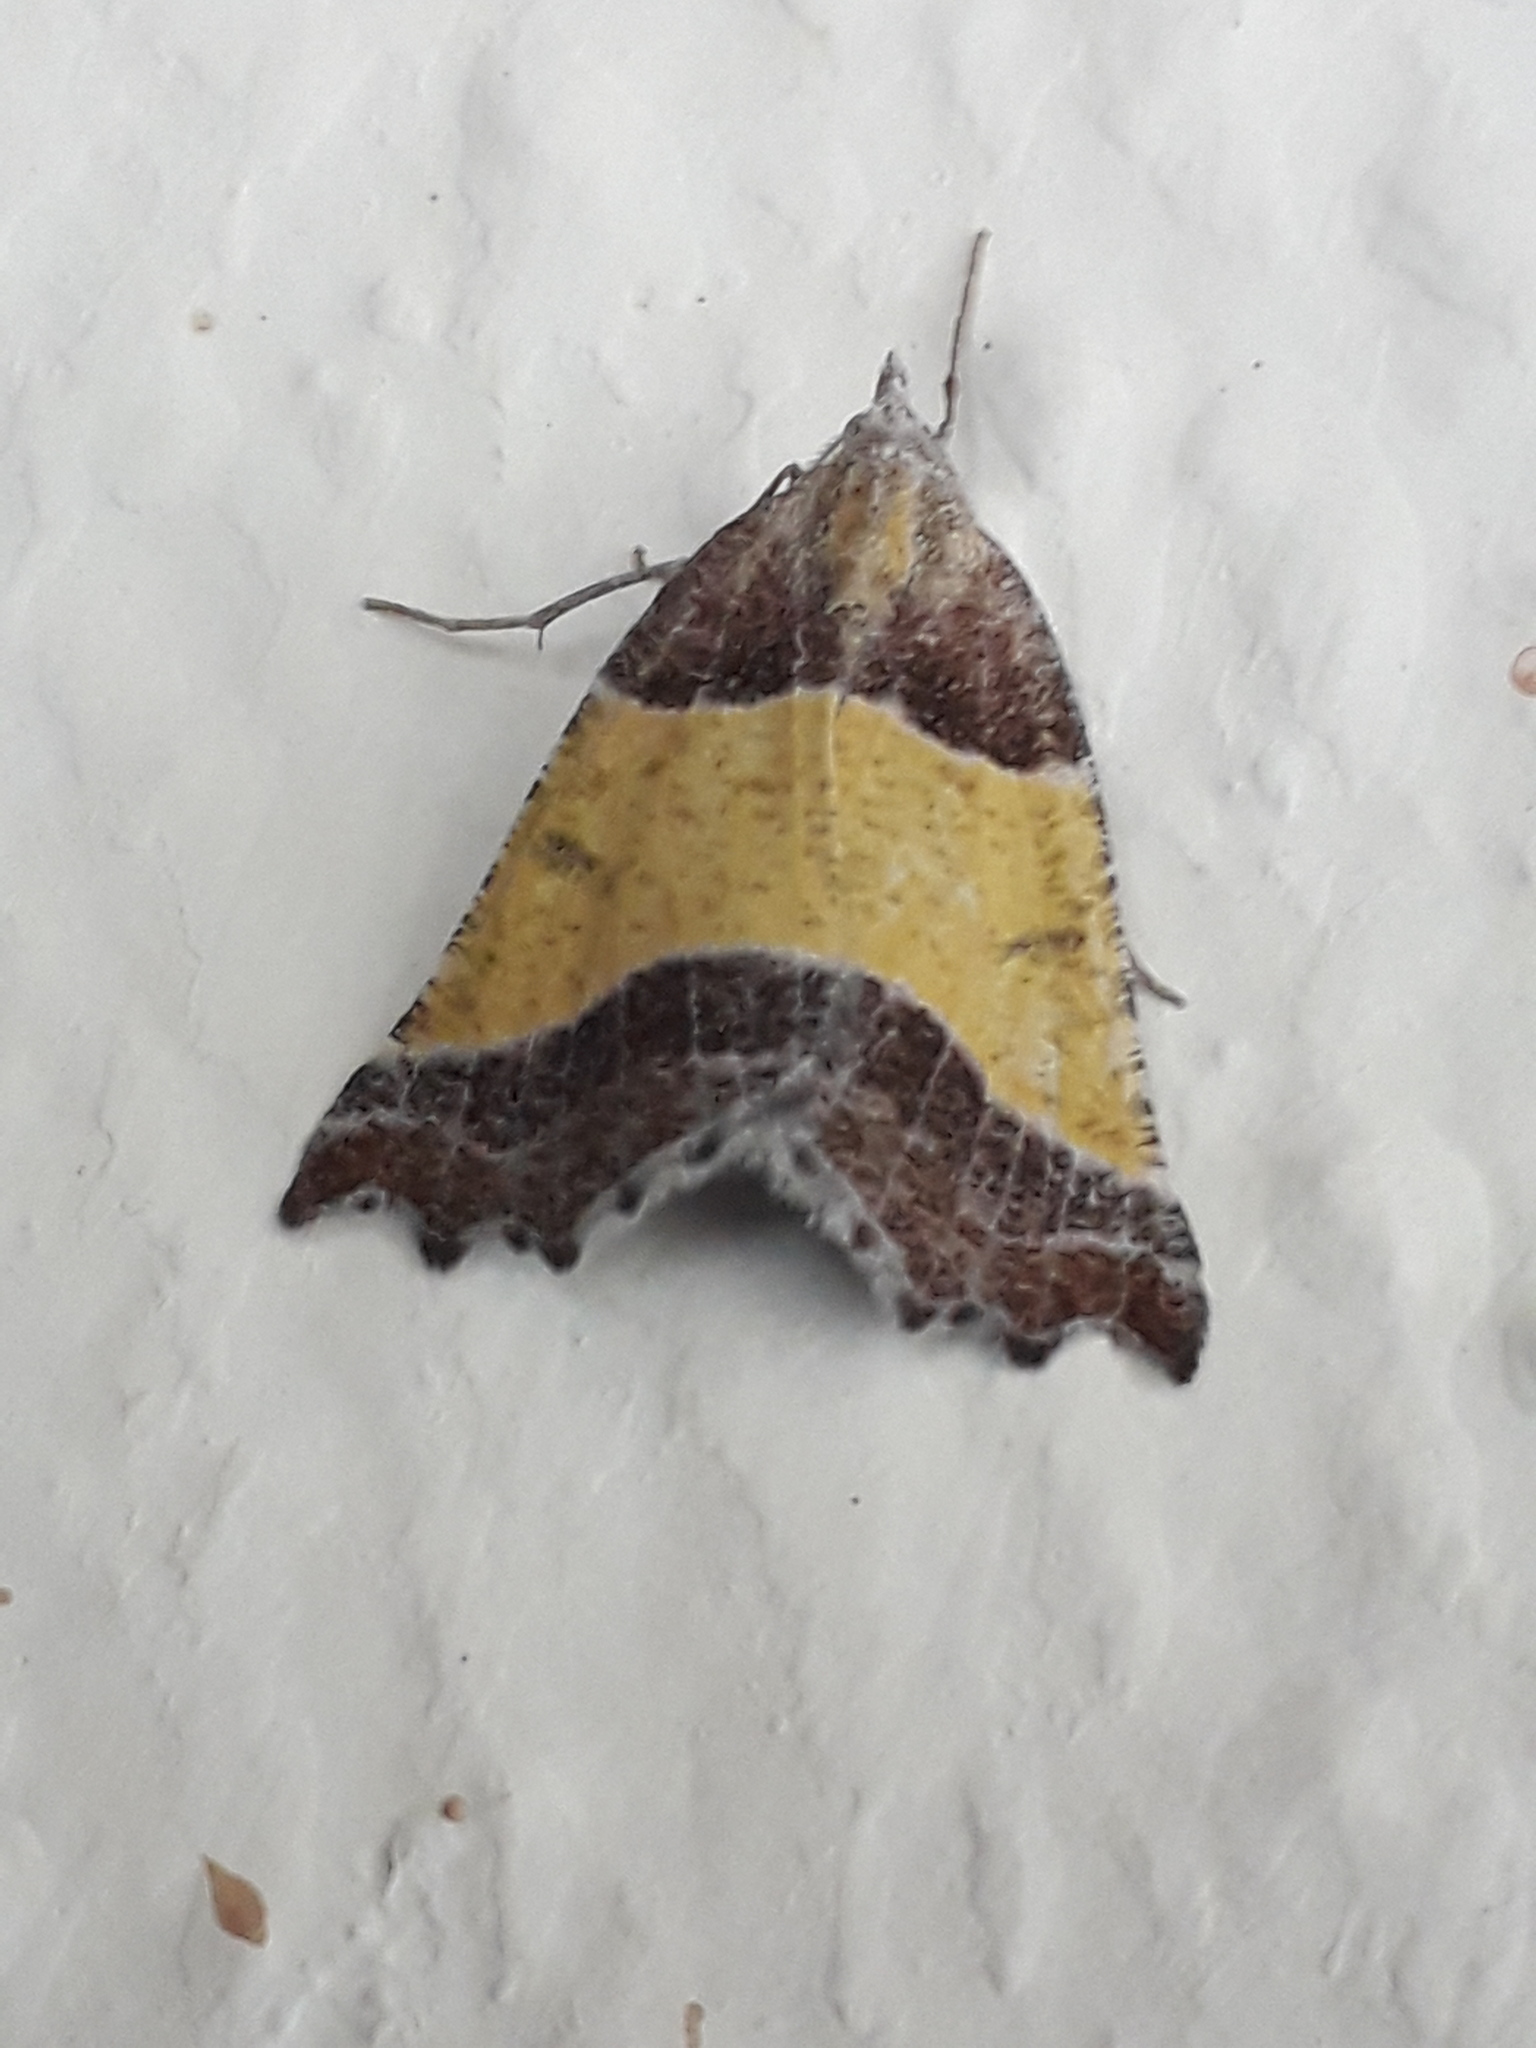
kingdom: Animalia
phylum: Arthropoda
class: Insecta
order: Lepidoptera
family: Geometridae
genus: Plataea
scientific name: Plataea polychroma
